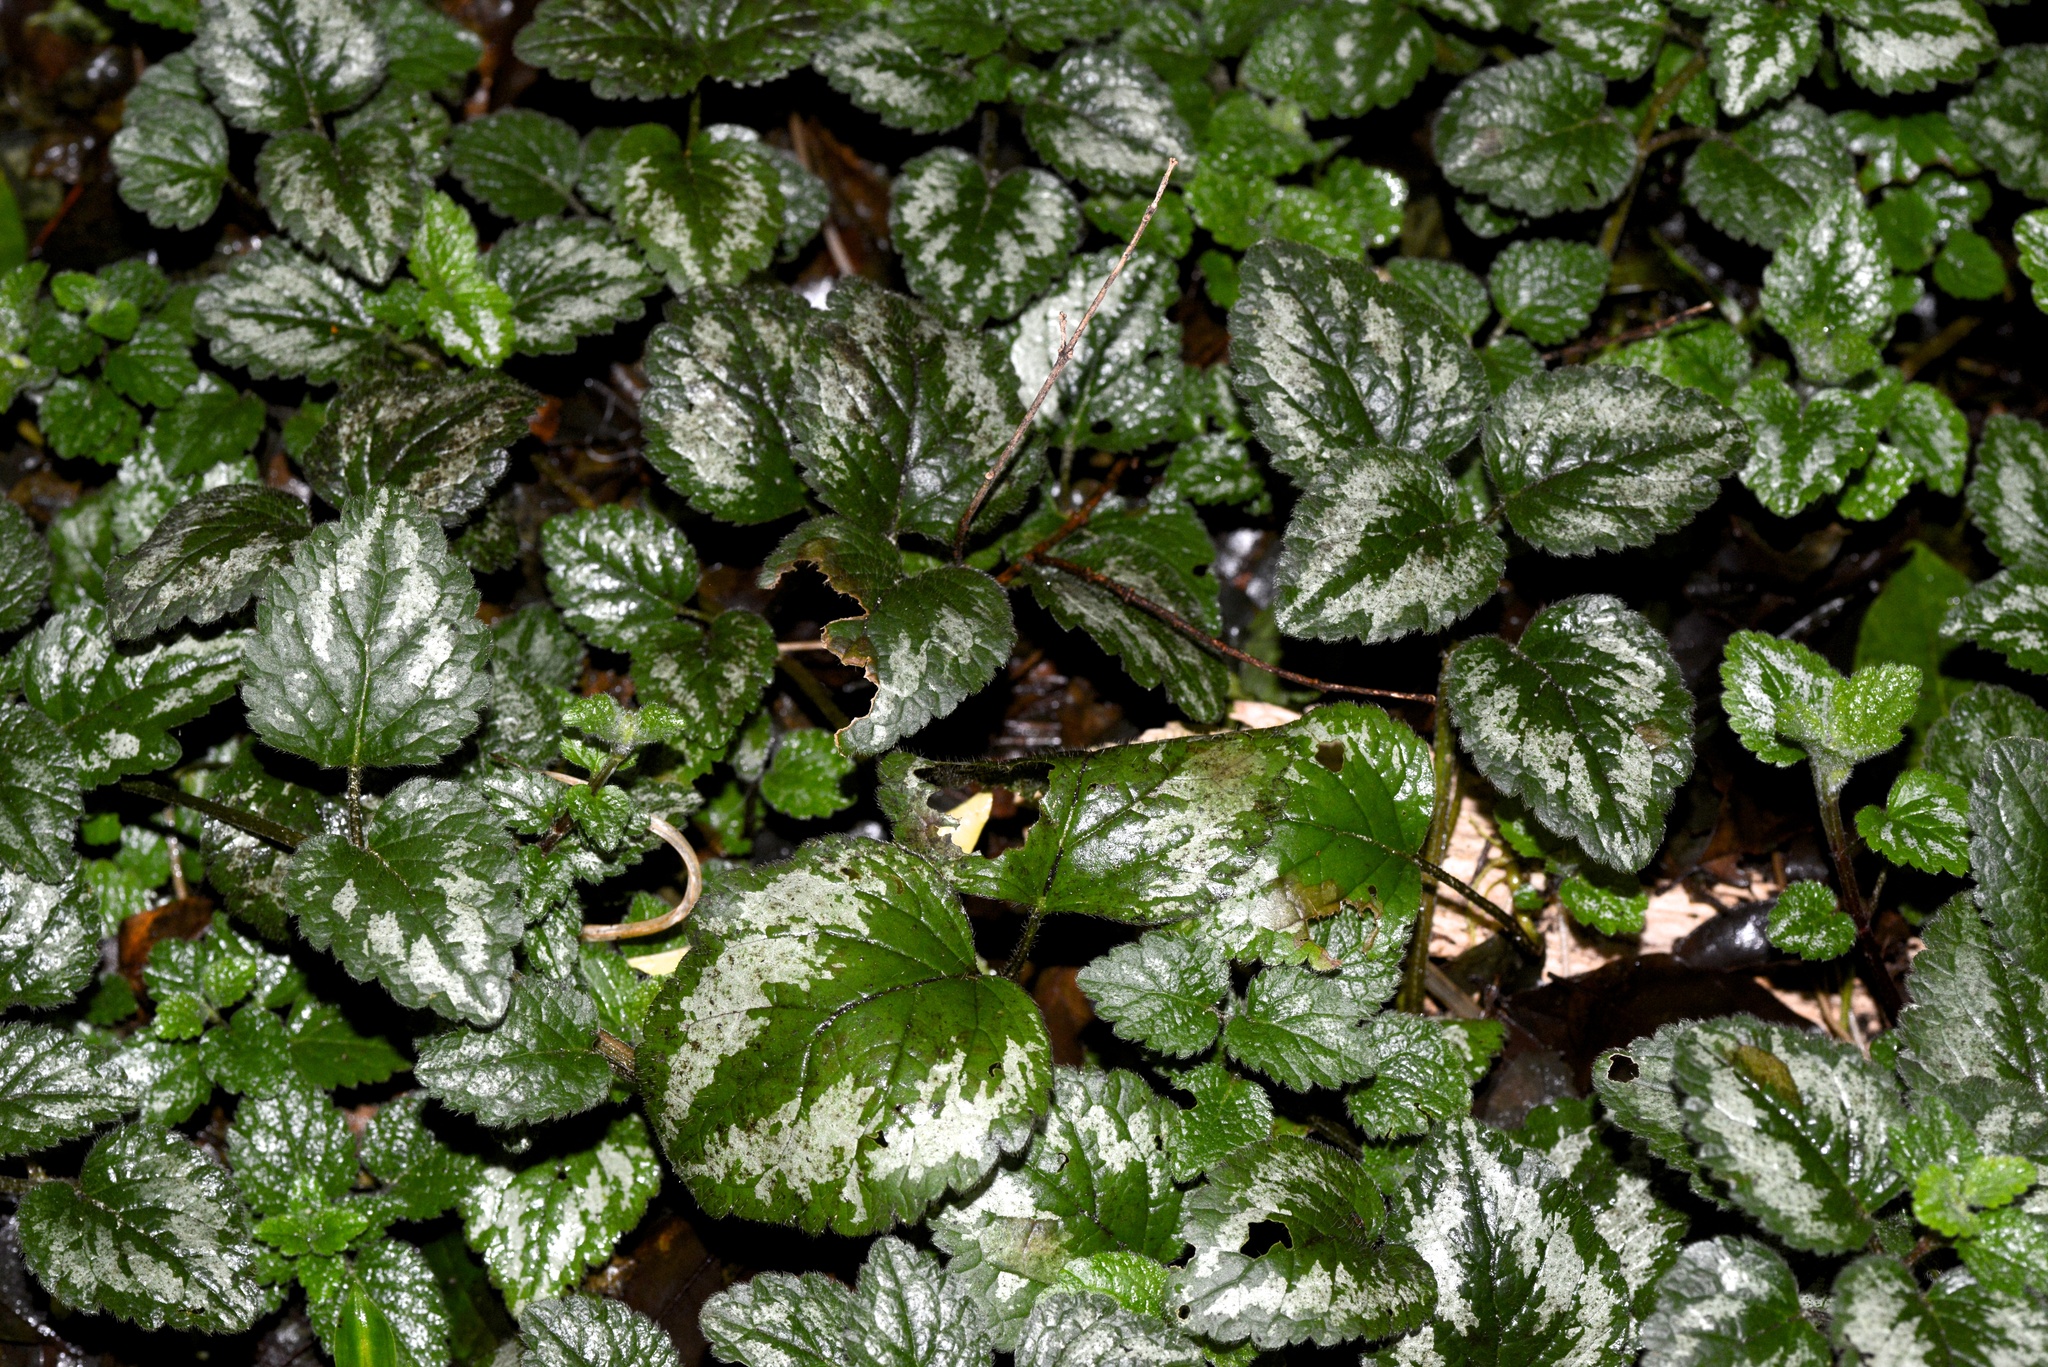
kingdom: Plantae
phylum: Tracheophyta
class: Magnoliopsida
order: Lamiales
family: Lamiaceae
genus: Lamium
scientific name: Lamium galeobdolon
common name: Yellow archangel
